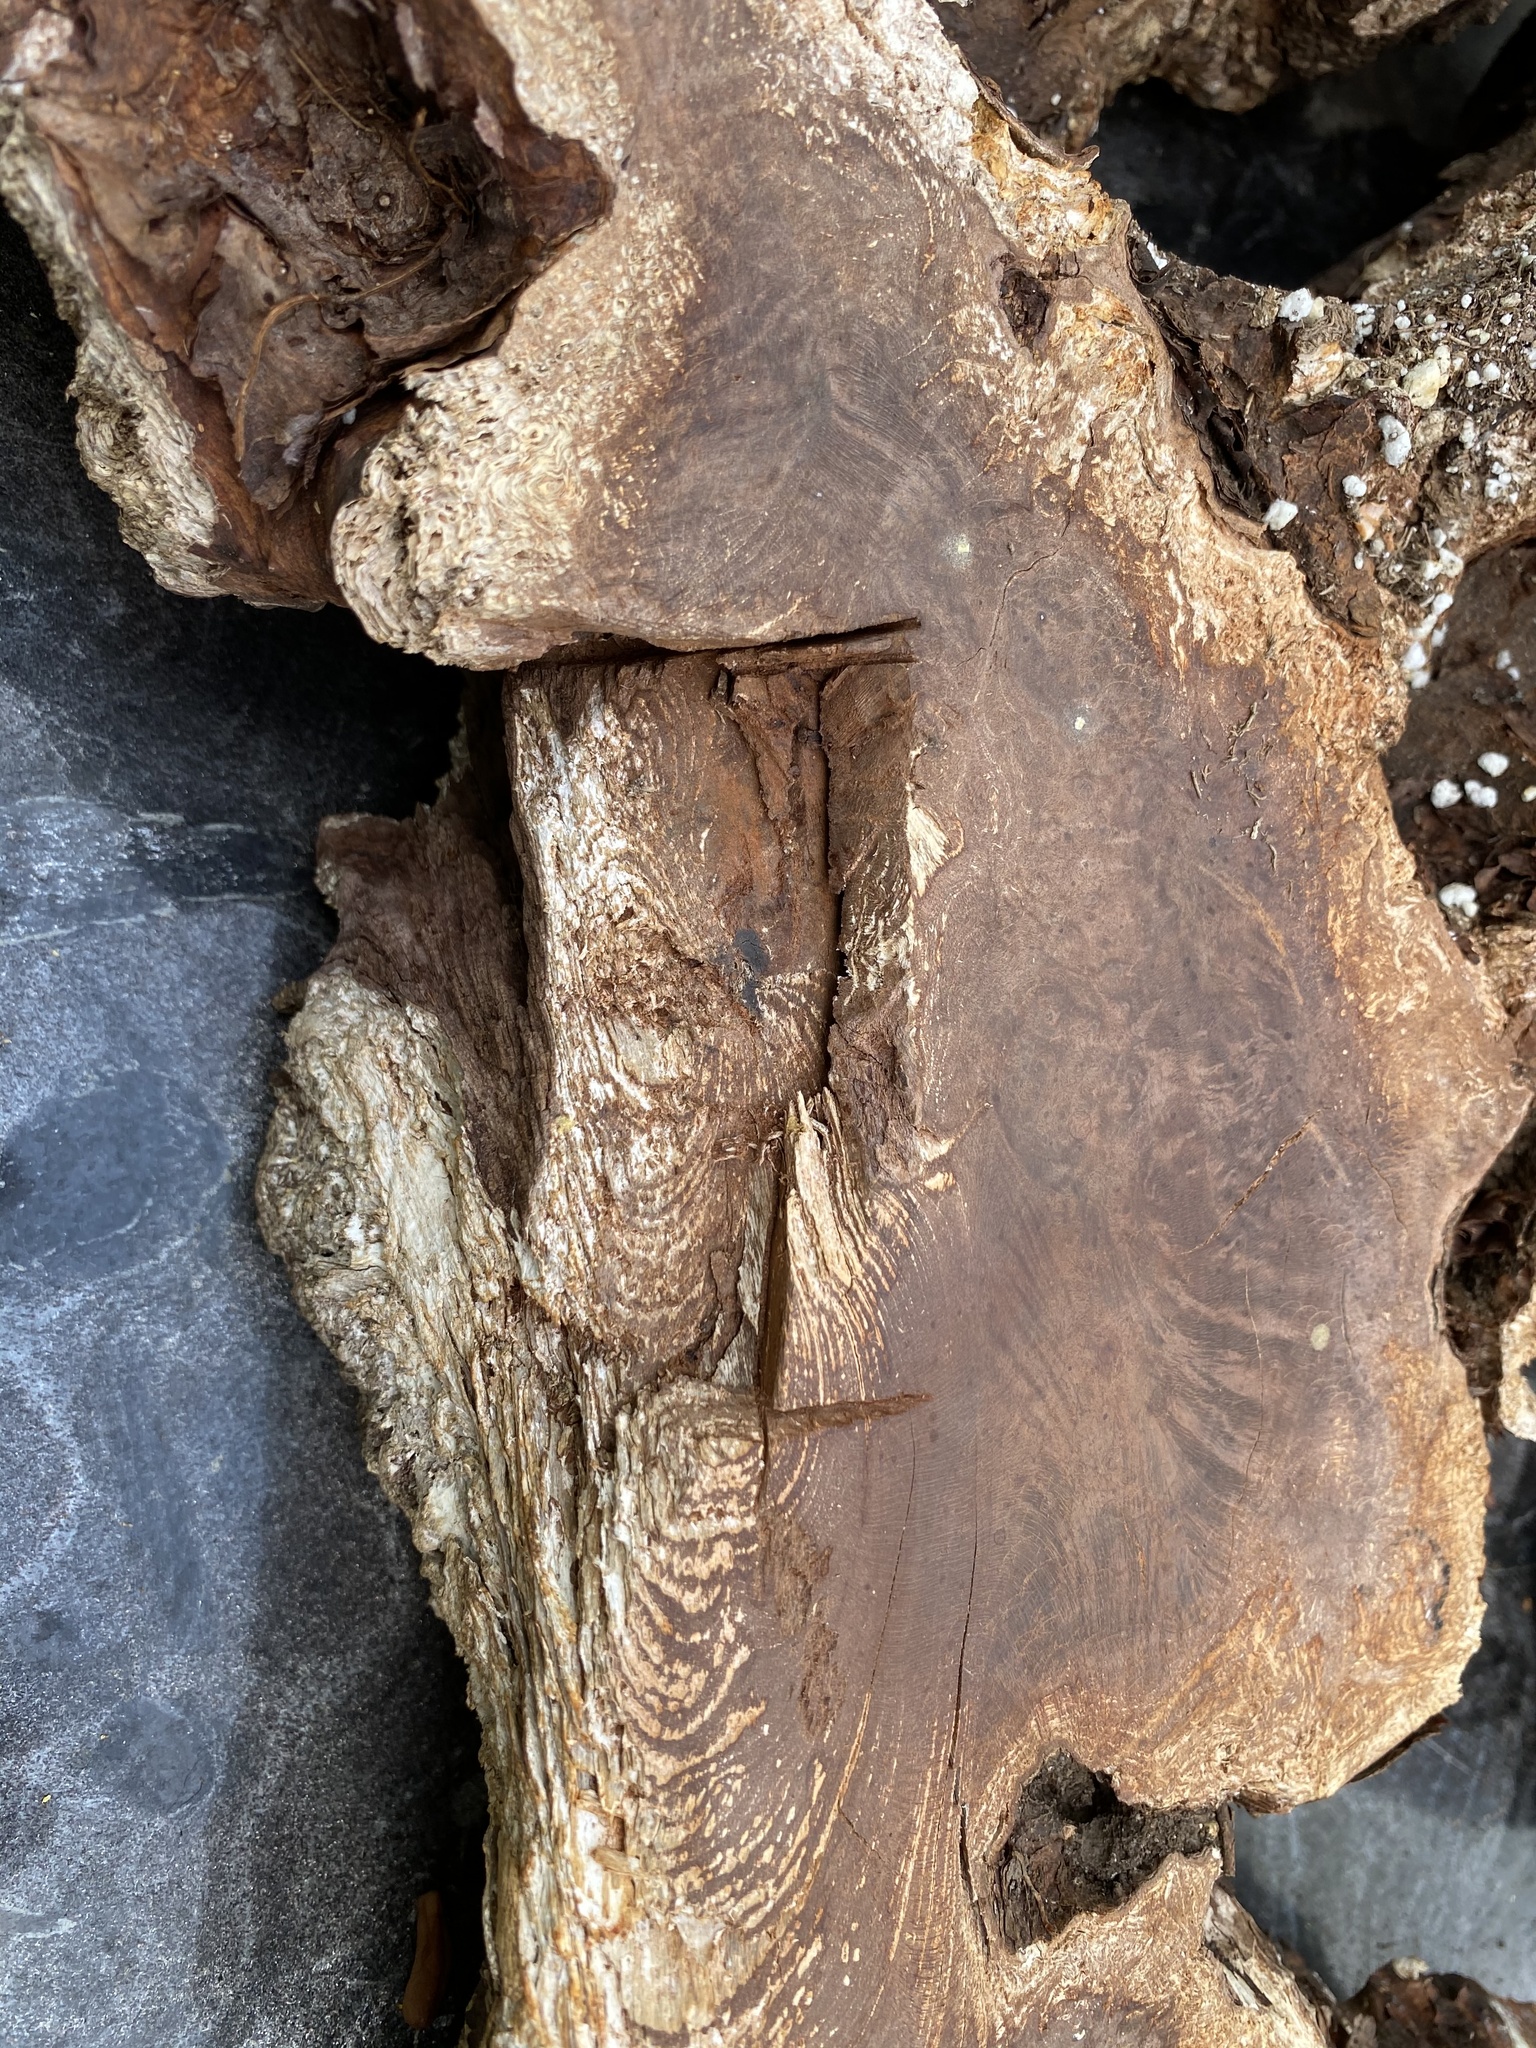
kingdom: Animalia
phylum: Chordata
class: Squamata
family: Viperidae
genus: Crotalus
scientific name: Crotalus ruber
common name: Red diamond rattlesnake
